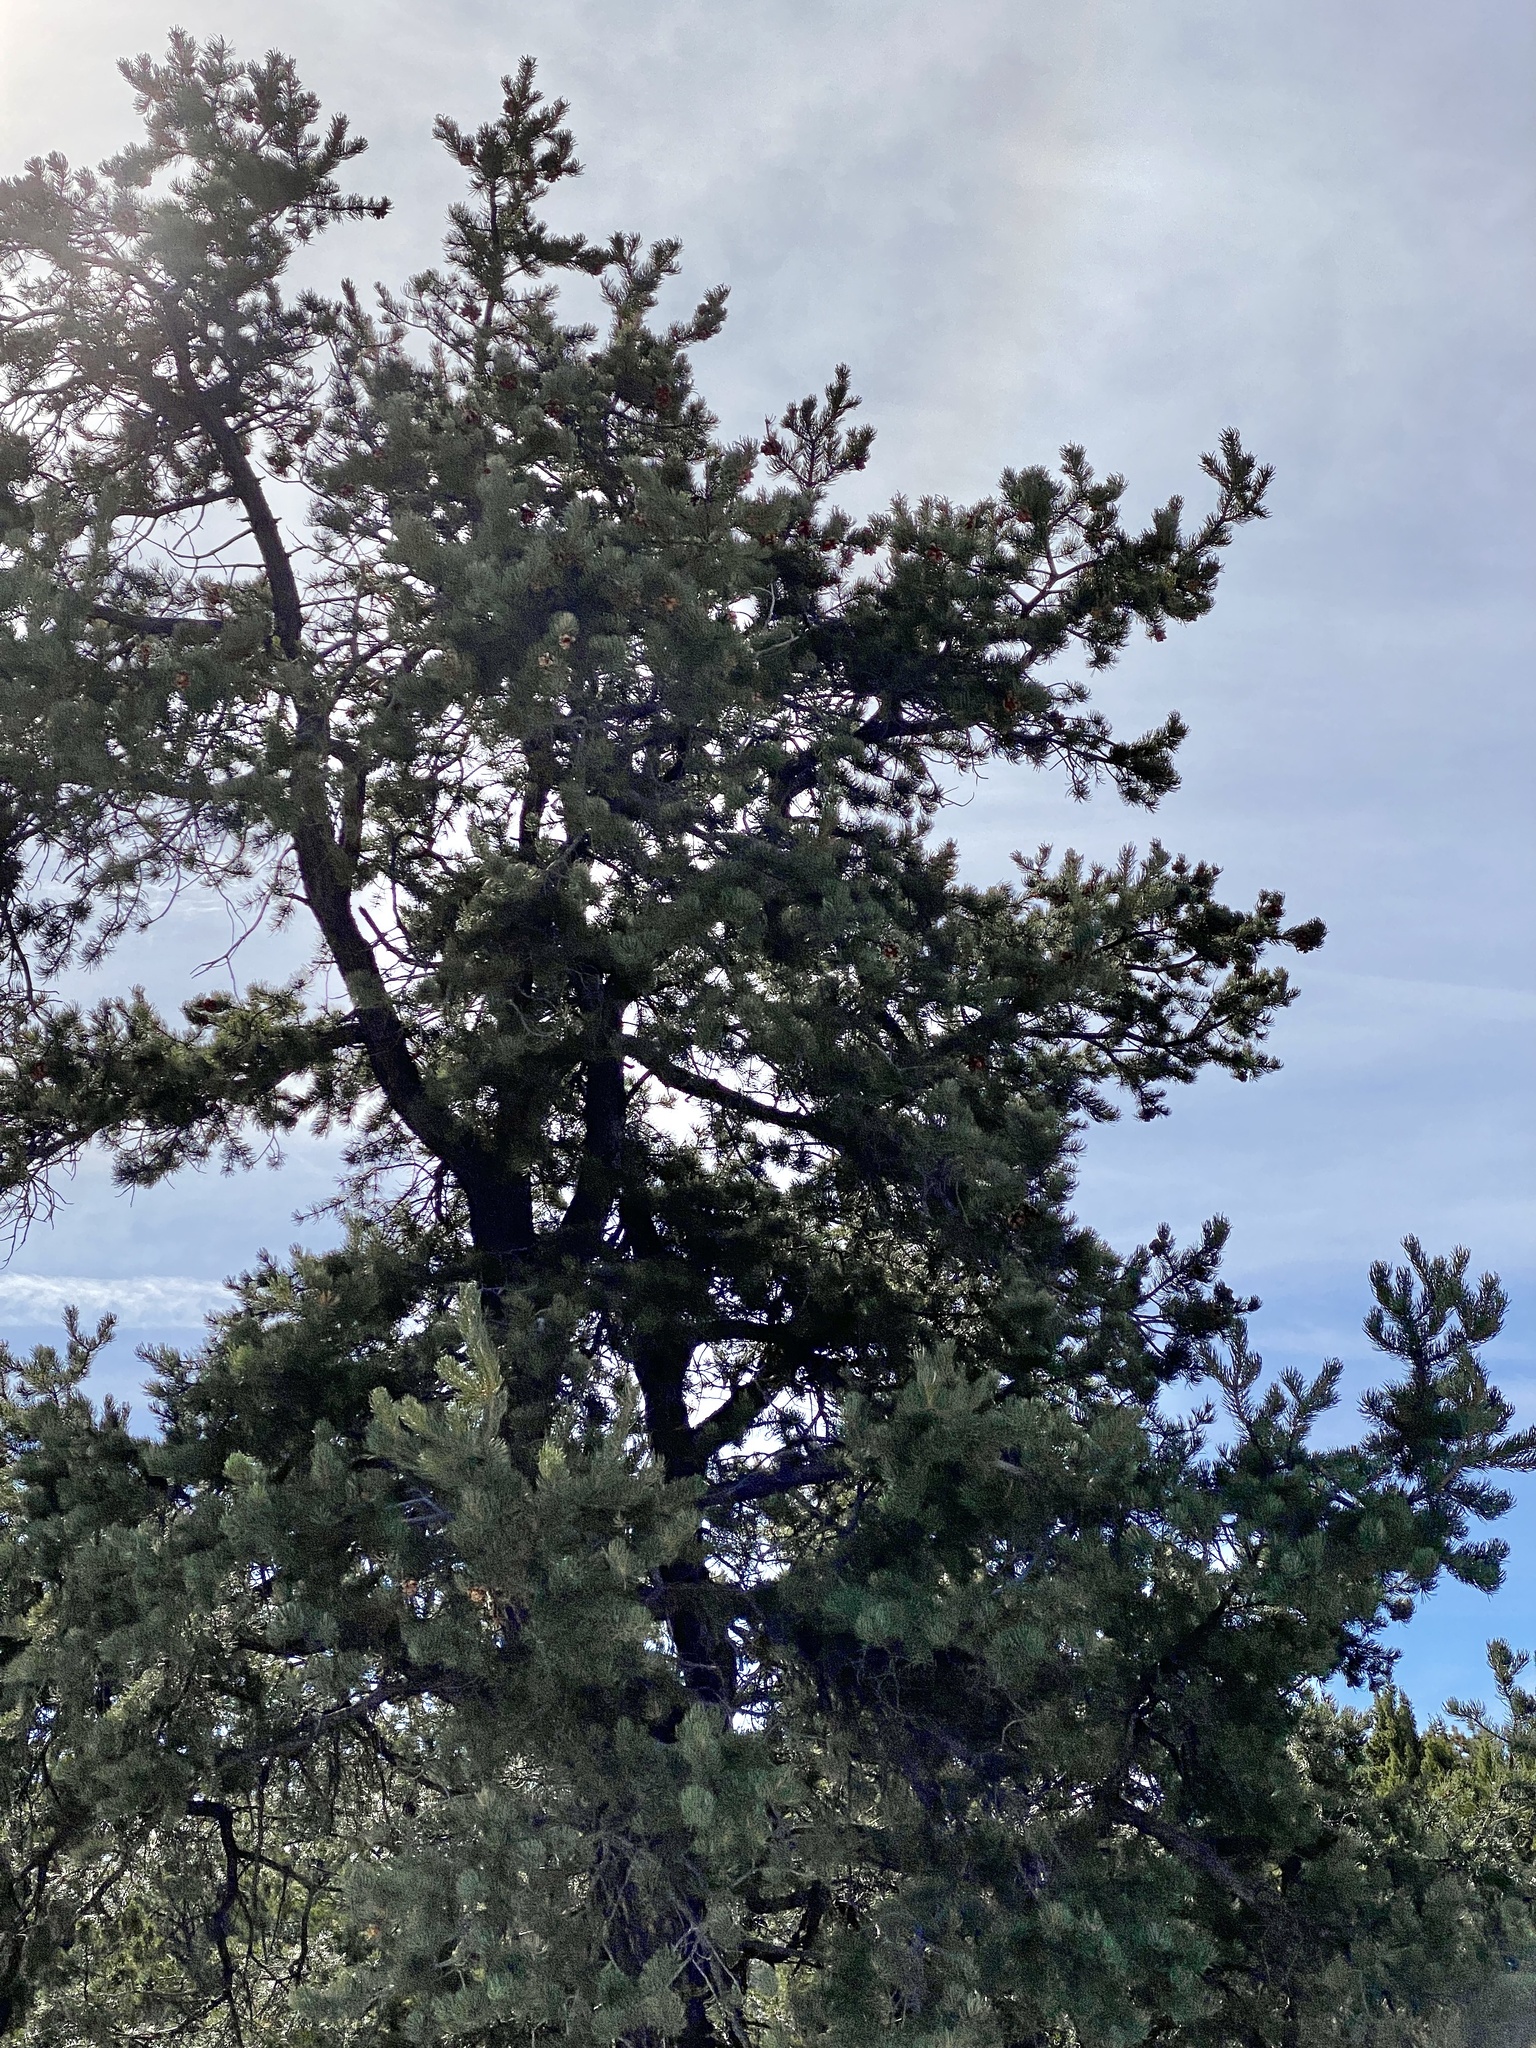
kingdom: Plantae
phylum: Tracheophyta
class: Pinopsida
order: Pinales
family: Pinaceae
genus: Pinus
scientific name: Pinus edulis
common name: Colorado pinyon
